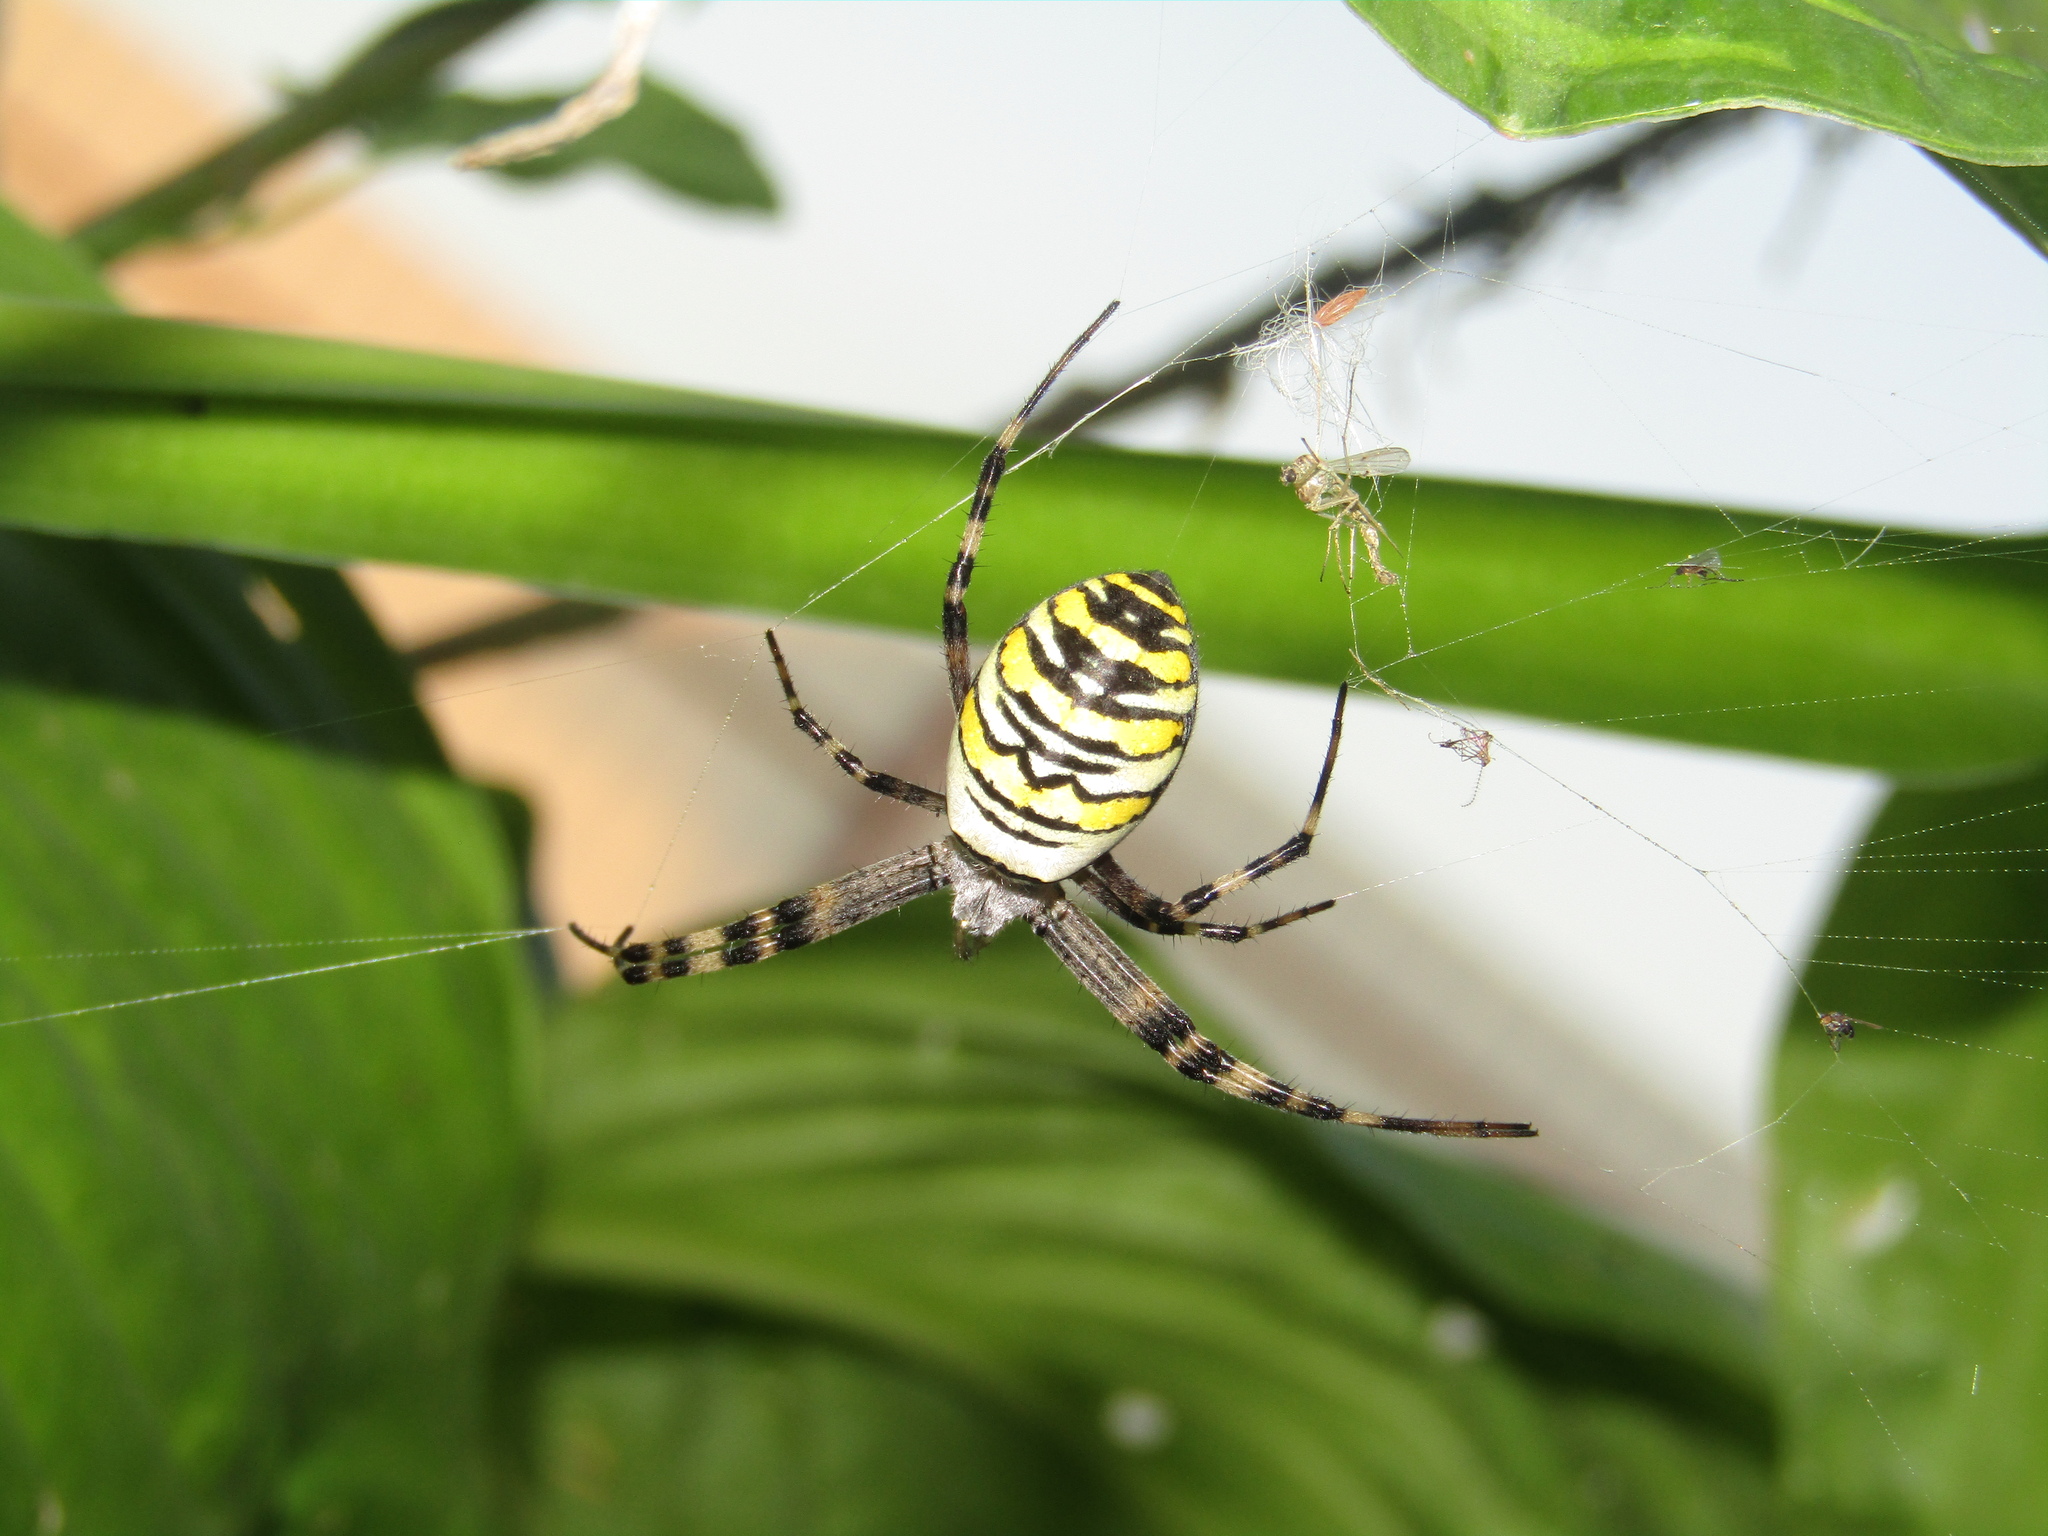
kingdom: Animalia
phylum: Arthropoda
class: Arachnida
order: Araneae
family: Araneidae
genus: Argiope
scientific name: Argiope bruennichi
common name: Wasp spider
